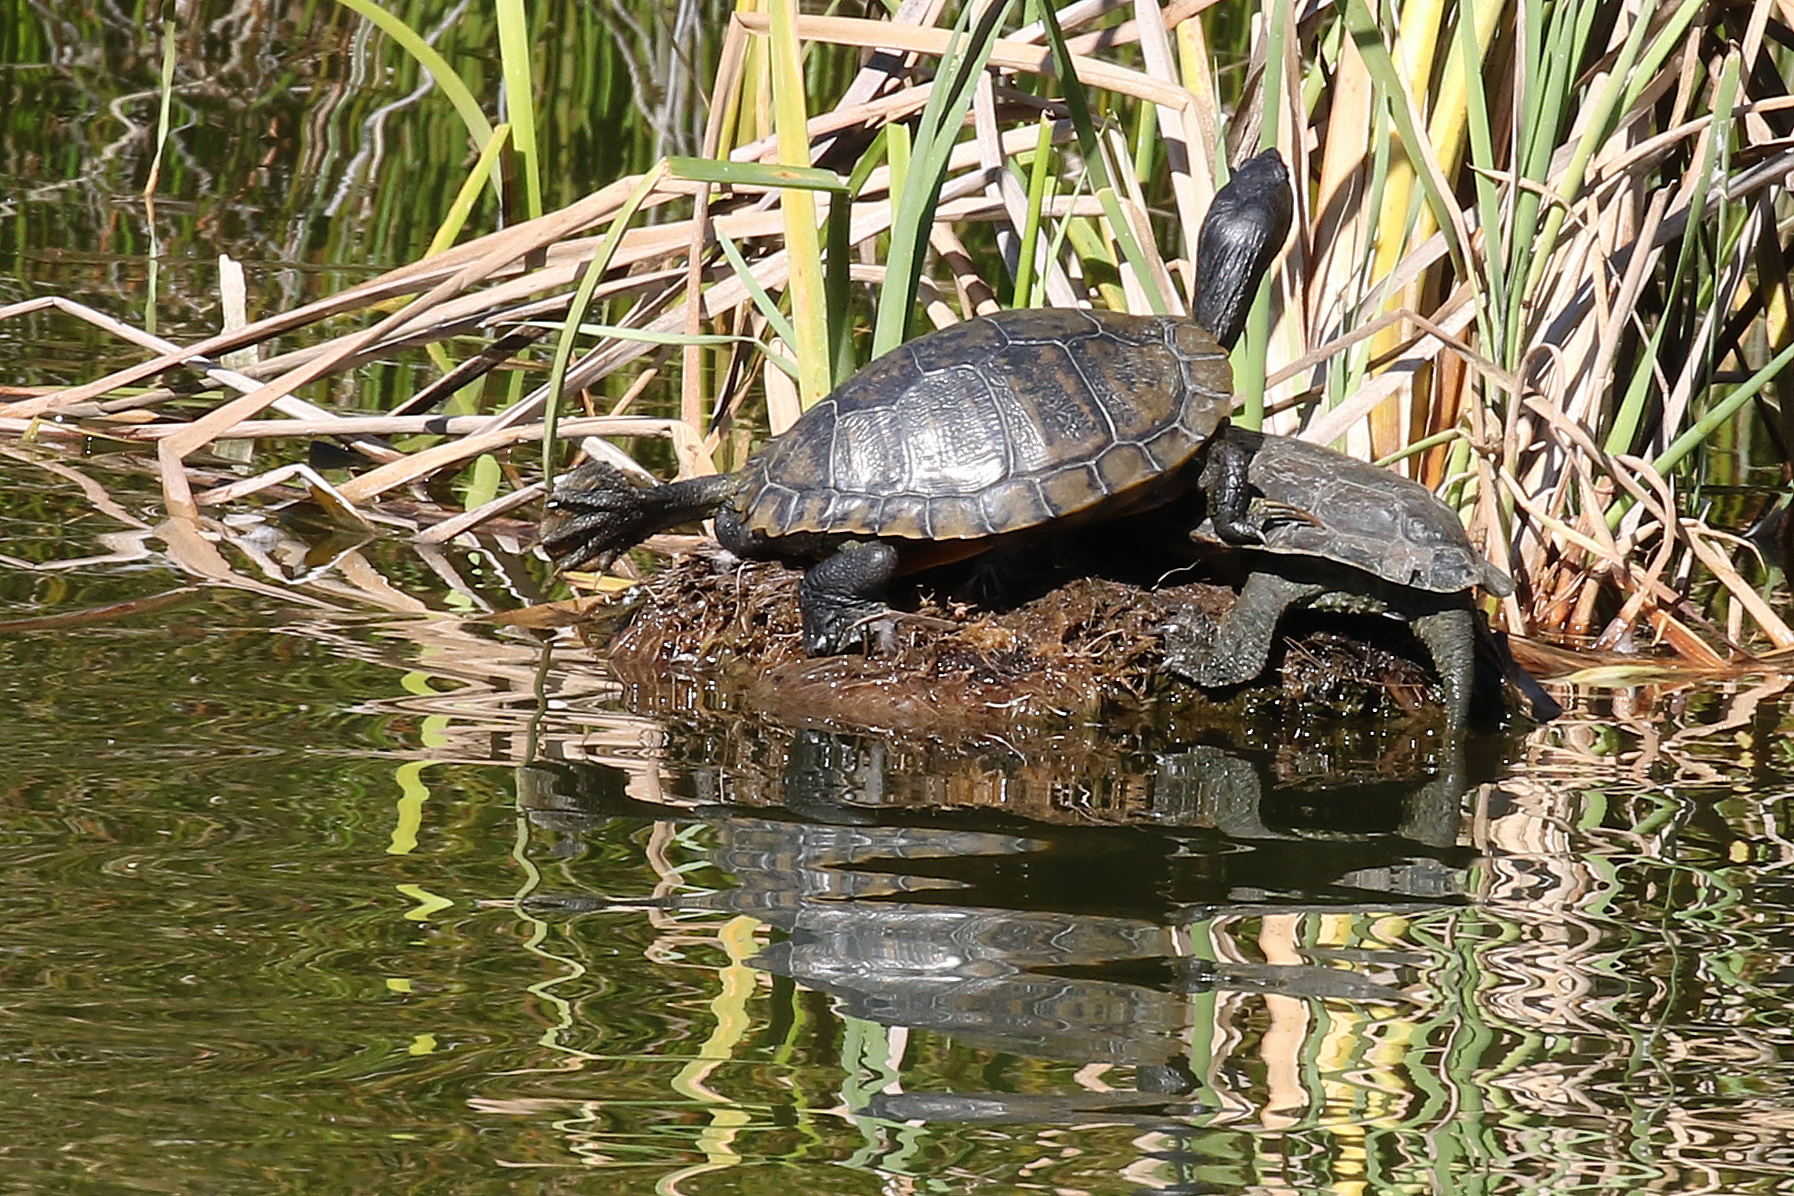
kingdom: Animalia
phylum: Chordata
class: Testudines
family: Emydidae
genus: Trachemys
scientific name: Trachemys scripta
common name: Slider
